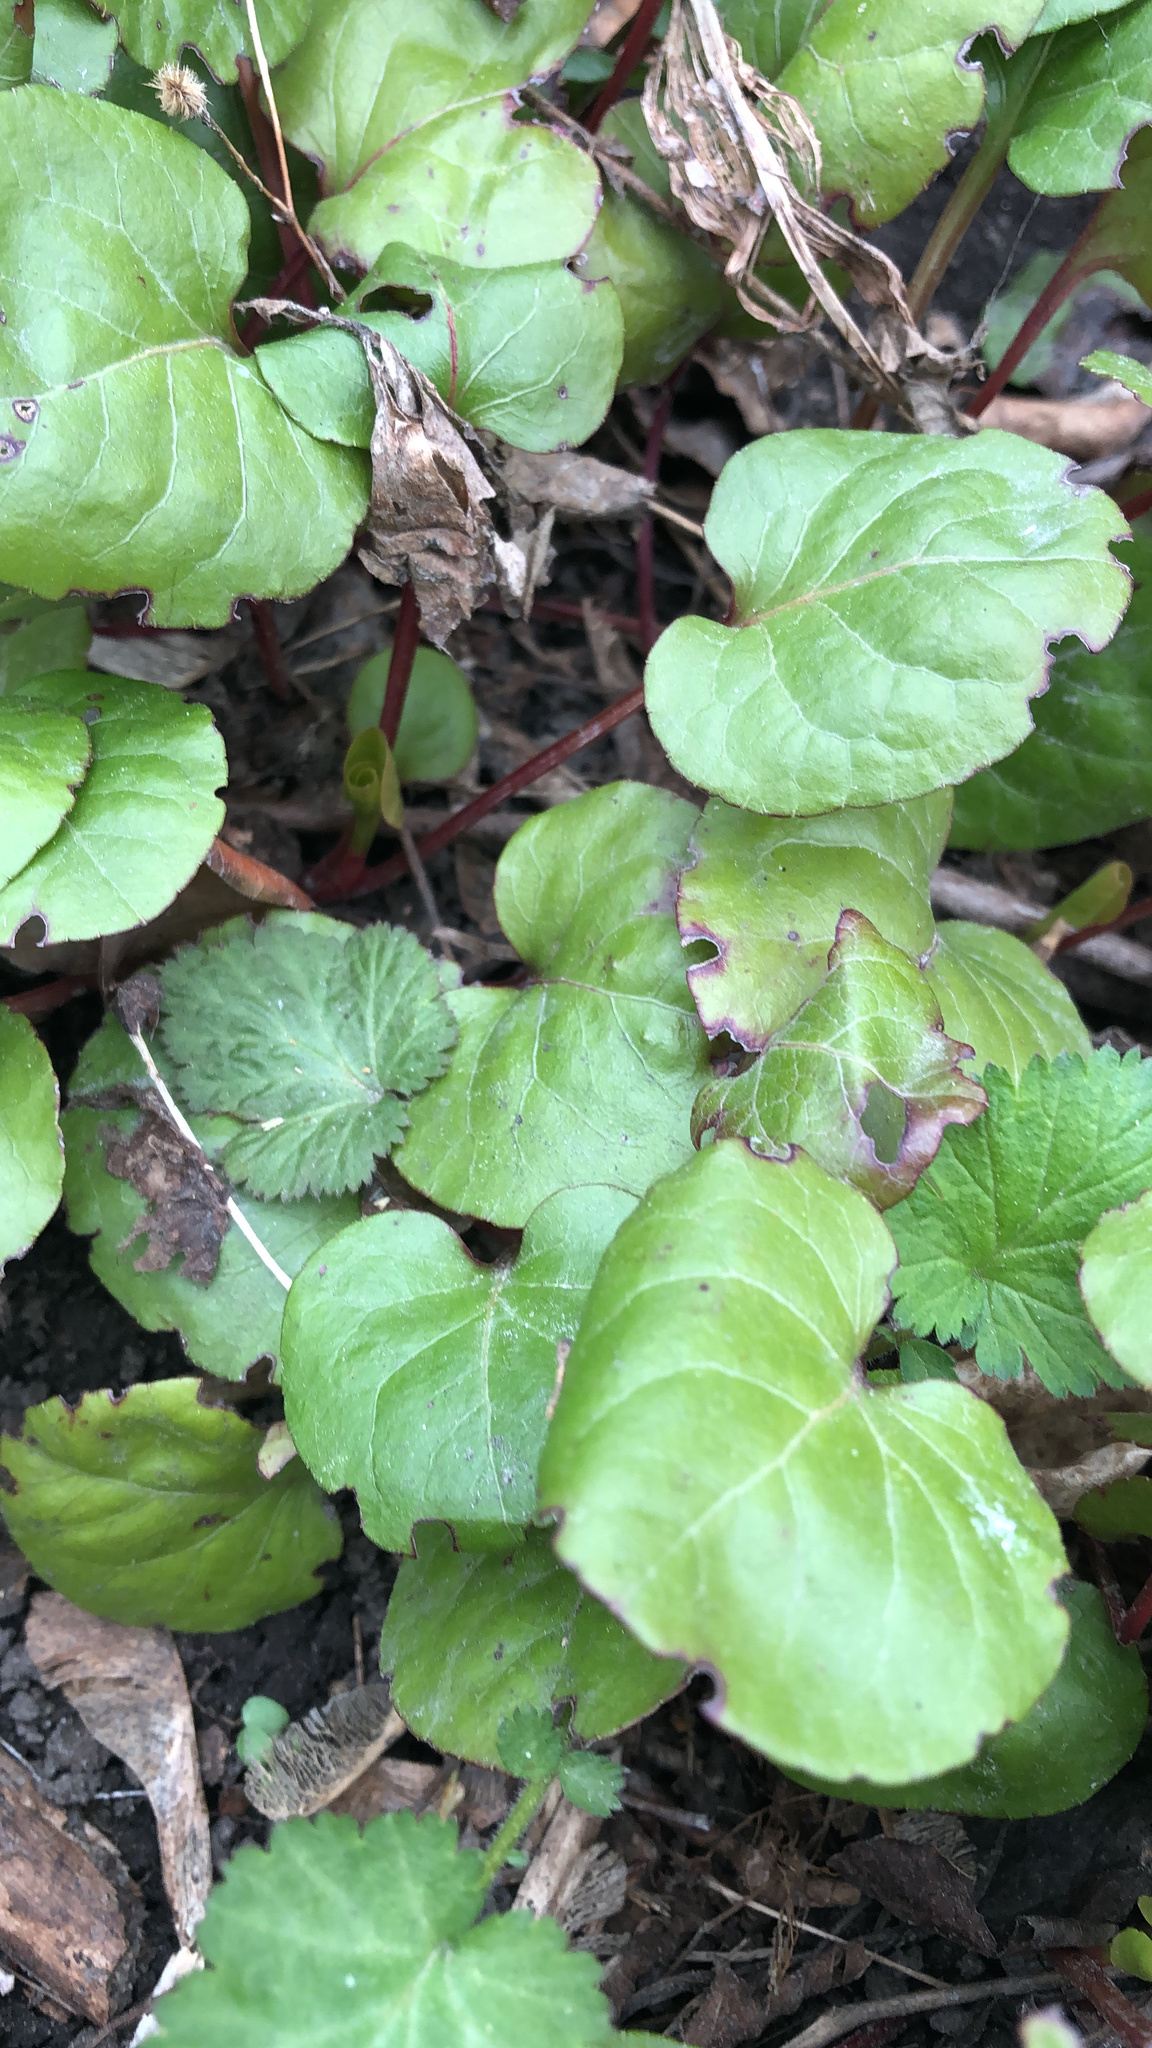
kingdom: Plantae
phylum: Tracheophyta
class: Magnoliopsida
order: Ericales
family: Ericaceae
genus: Pyrola
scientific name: Pyrola asarifolia
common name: Bog wintergreen
